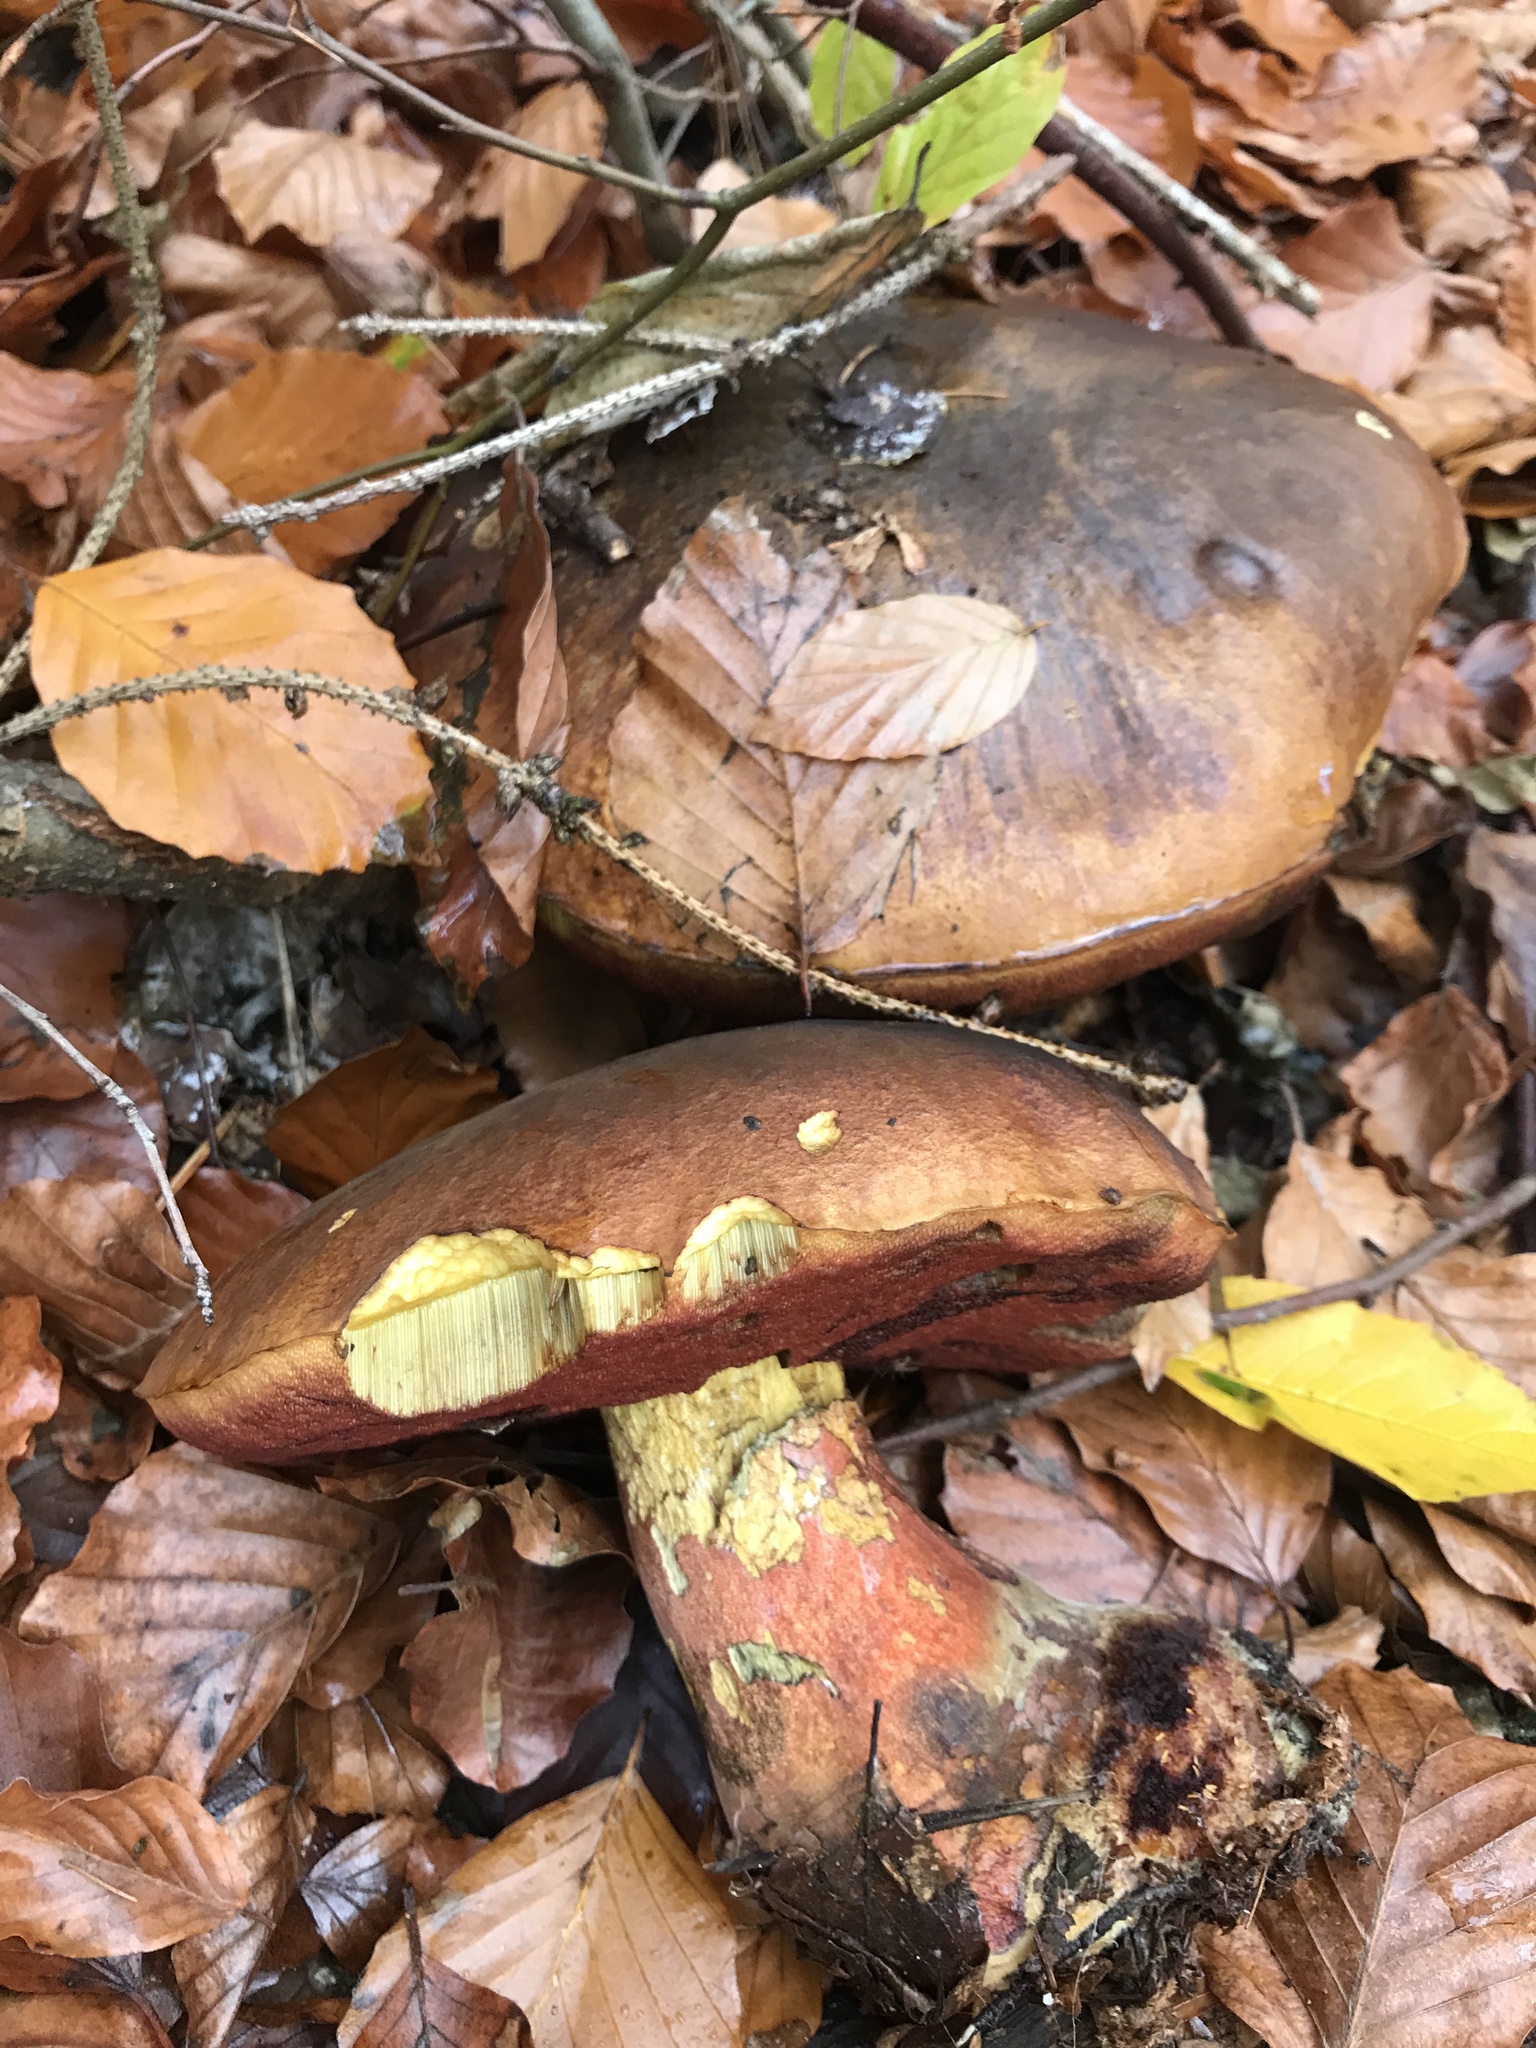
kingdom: Fungi
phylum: Basidiomycota
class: Agaricomycetes
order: Boletales
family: Boletaceae
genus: Neoboletus
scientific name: Neoboletus erythropus
